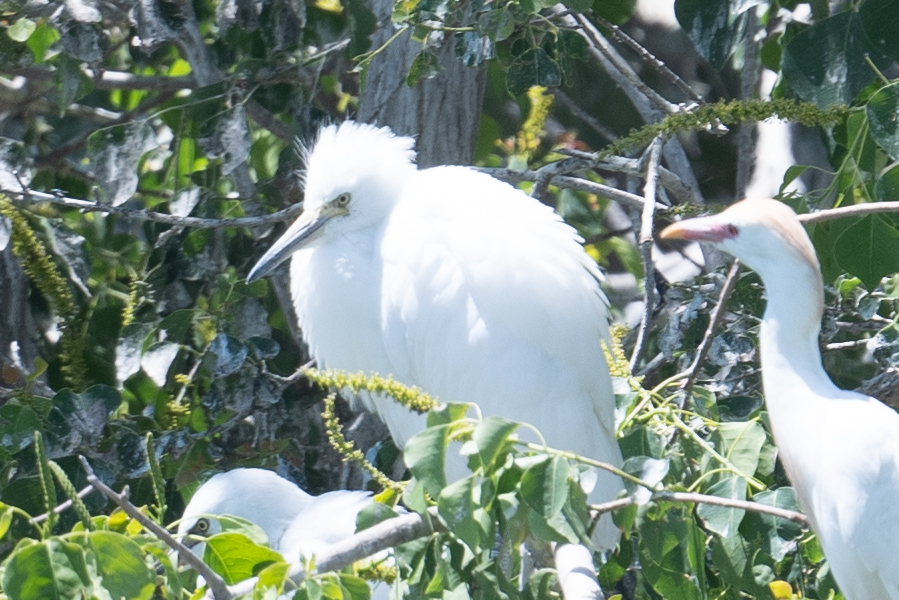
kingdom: Animalia
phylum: Chordata
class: Aves
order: Pelecaniformes
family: Ardeidae
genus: Egretta
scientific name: Egretta thula
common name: Snowy egret
